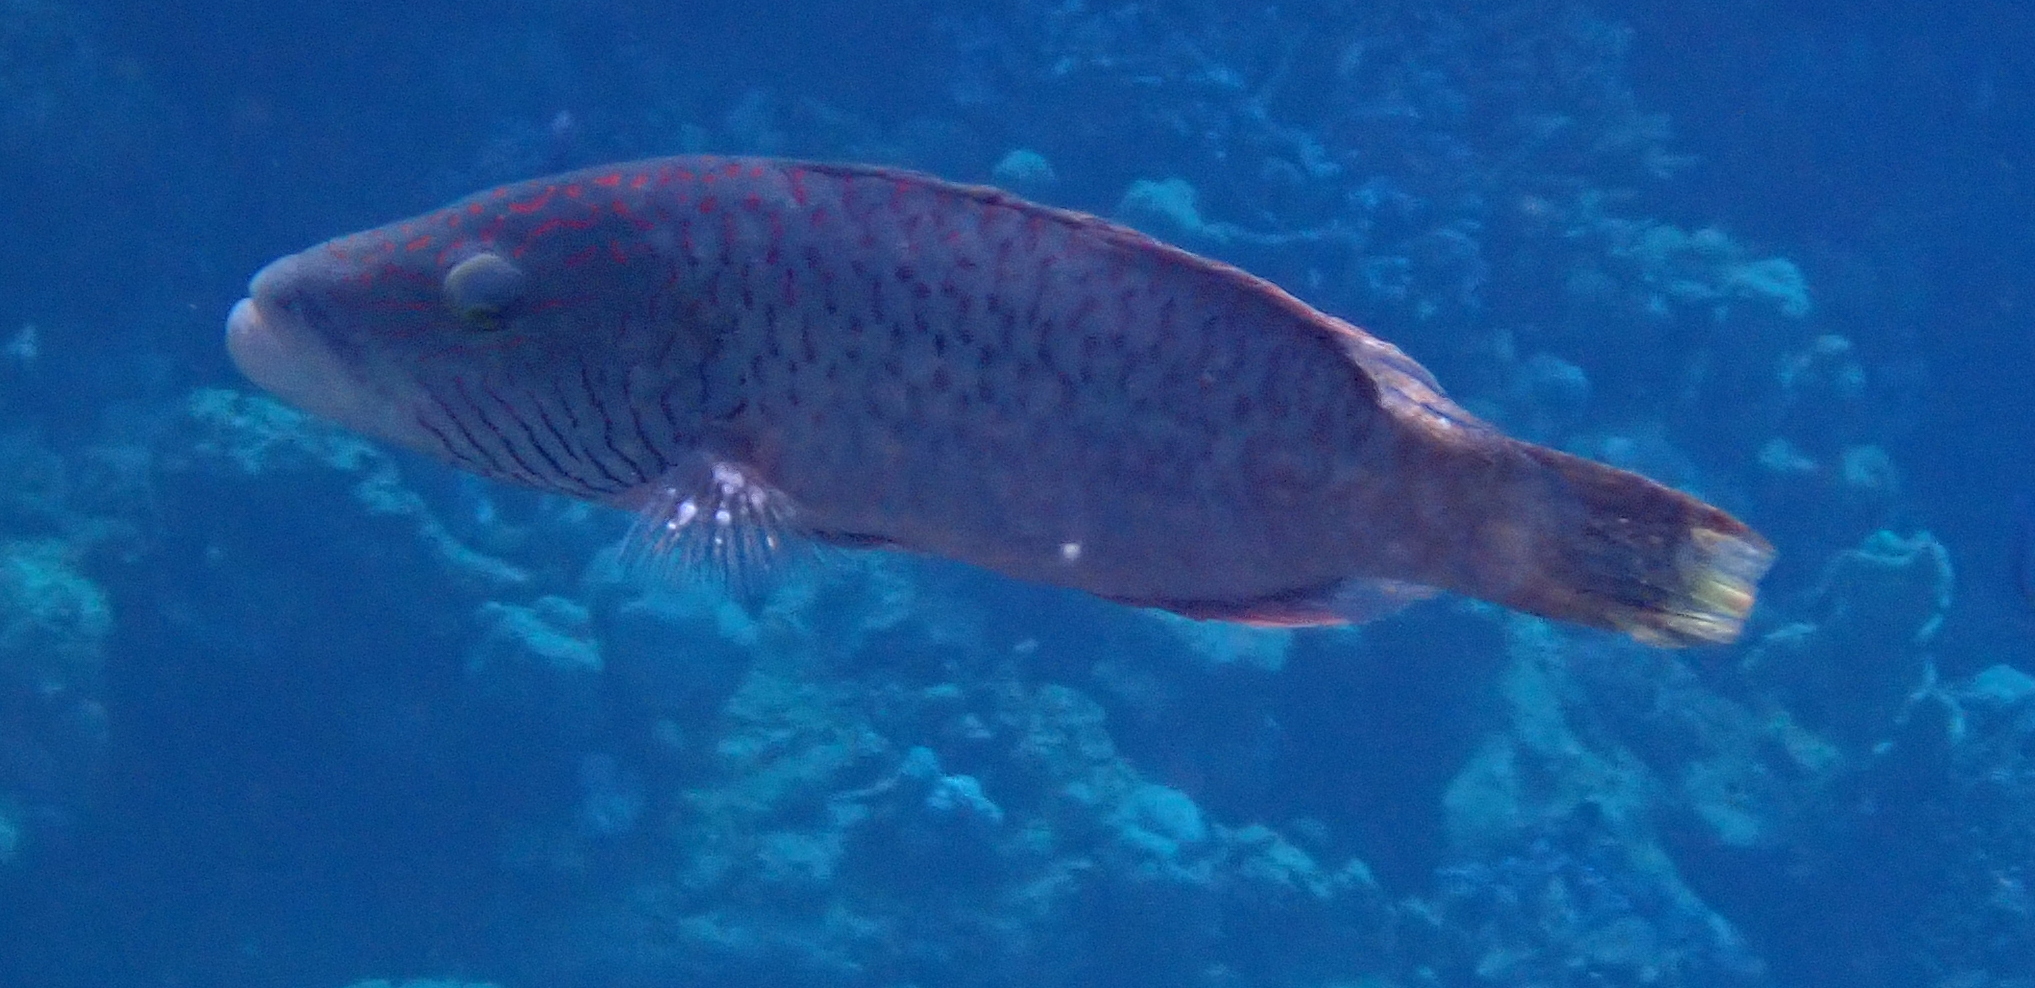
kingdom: Animalia
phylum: Chordata
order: Perciformes
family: Labridae
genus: Oxycheilinus
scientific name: Oxycheilinus digramma
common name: Bandcheek wrasse
